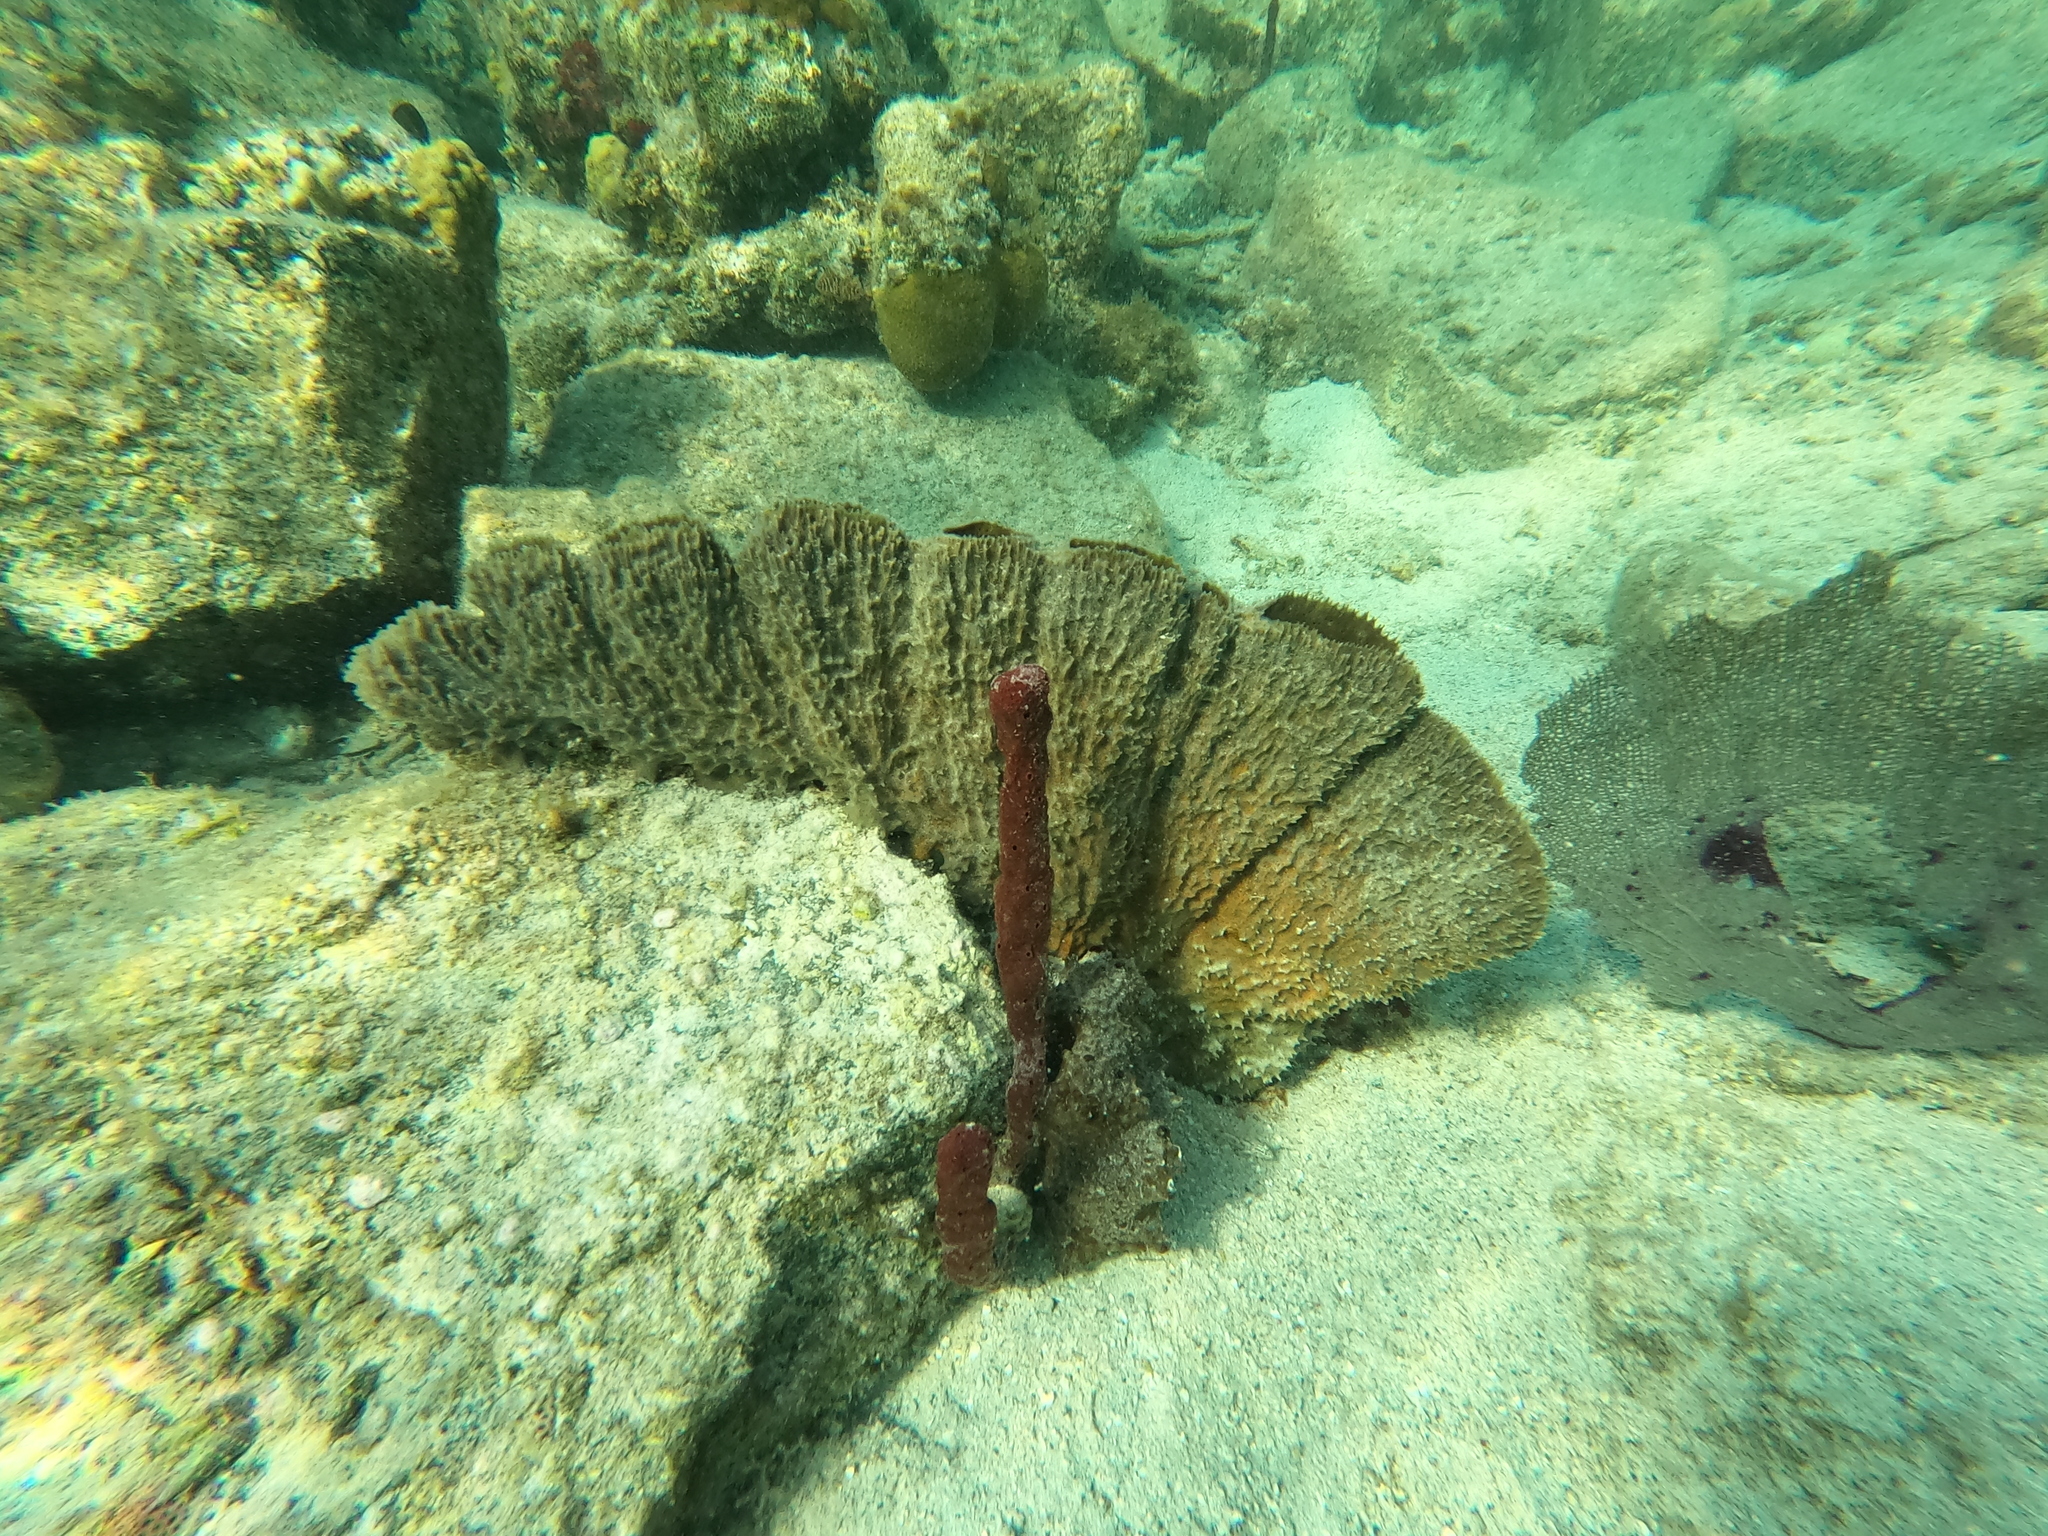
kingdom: Animalia
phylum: Porifera
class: Demospongiae
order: Haplosclerida
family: Callyspongiidae
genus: Callyspongia
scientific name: Callyspongia aculeata
